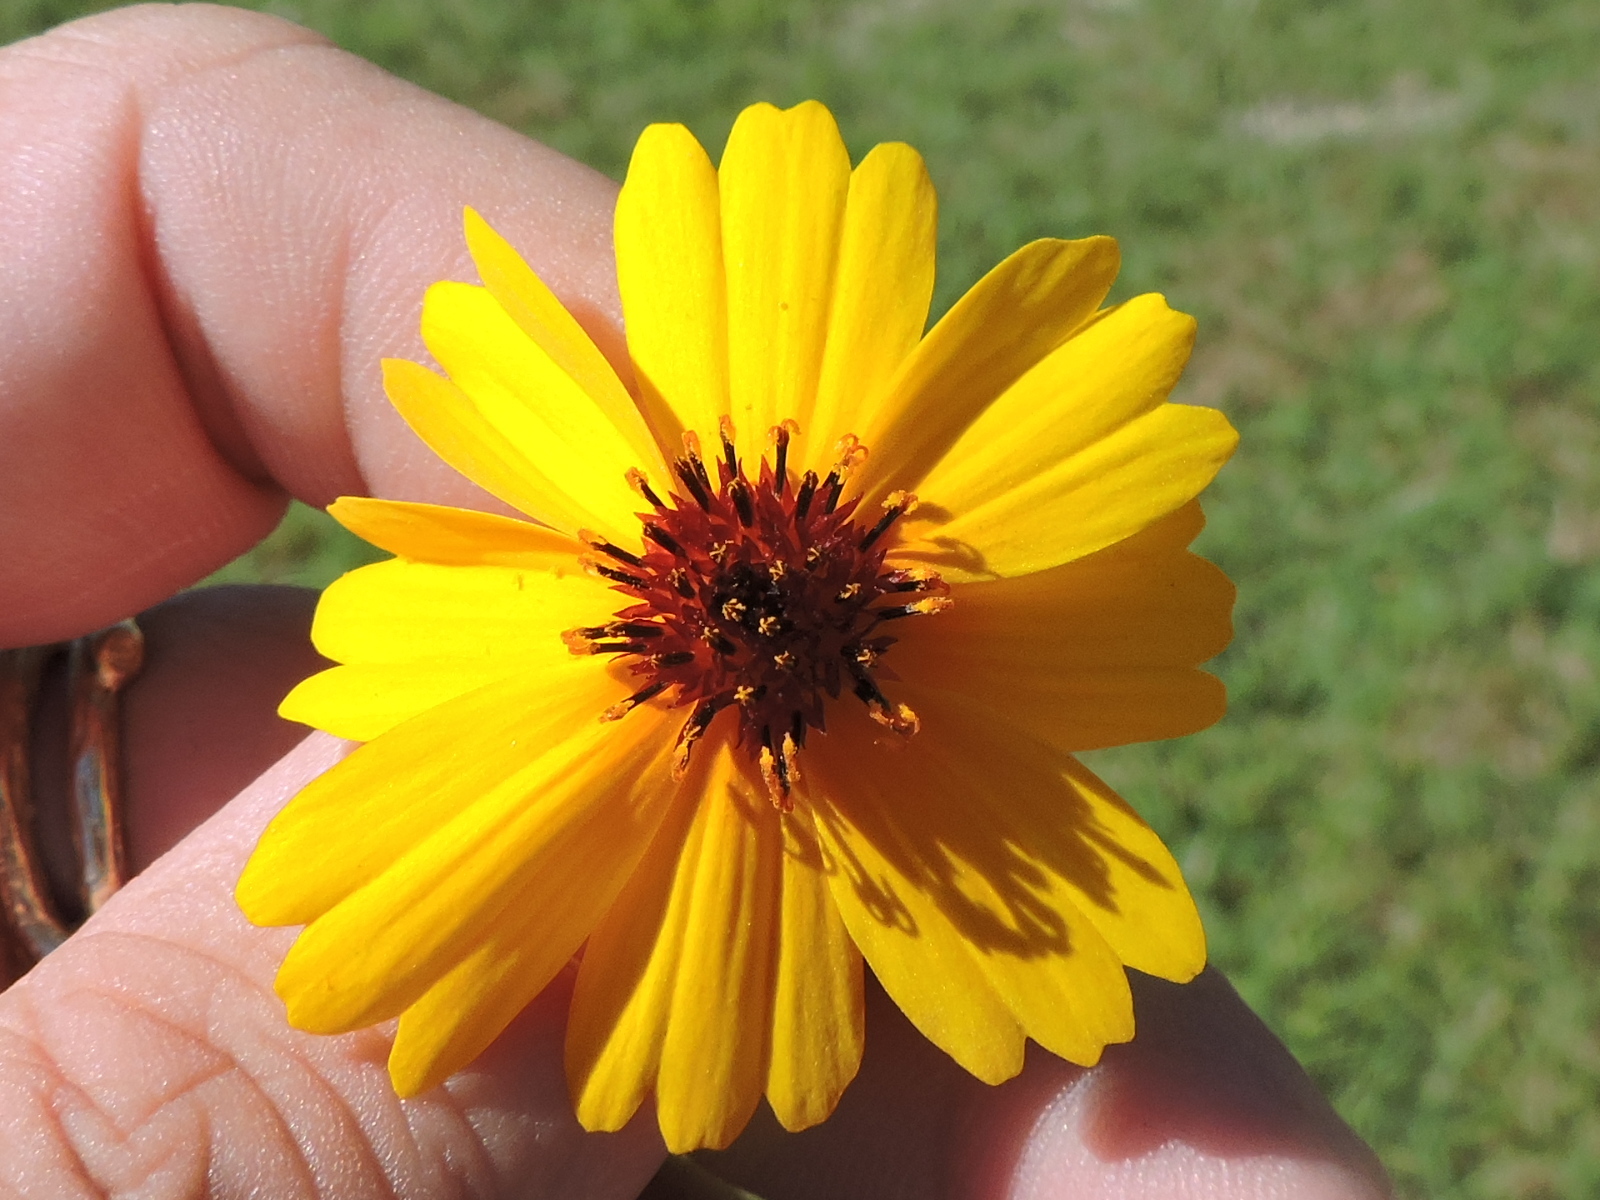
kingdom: Plantae
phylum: Tracheophyta
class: Magnoliopsida
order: Asterales
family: Asteraceae
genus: Thelesperma
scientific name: Thelesperma filifolium
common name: Stiff greenthread
